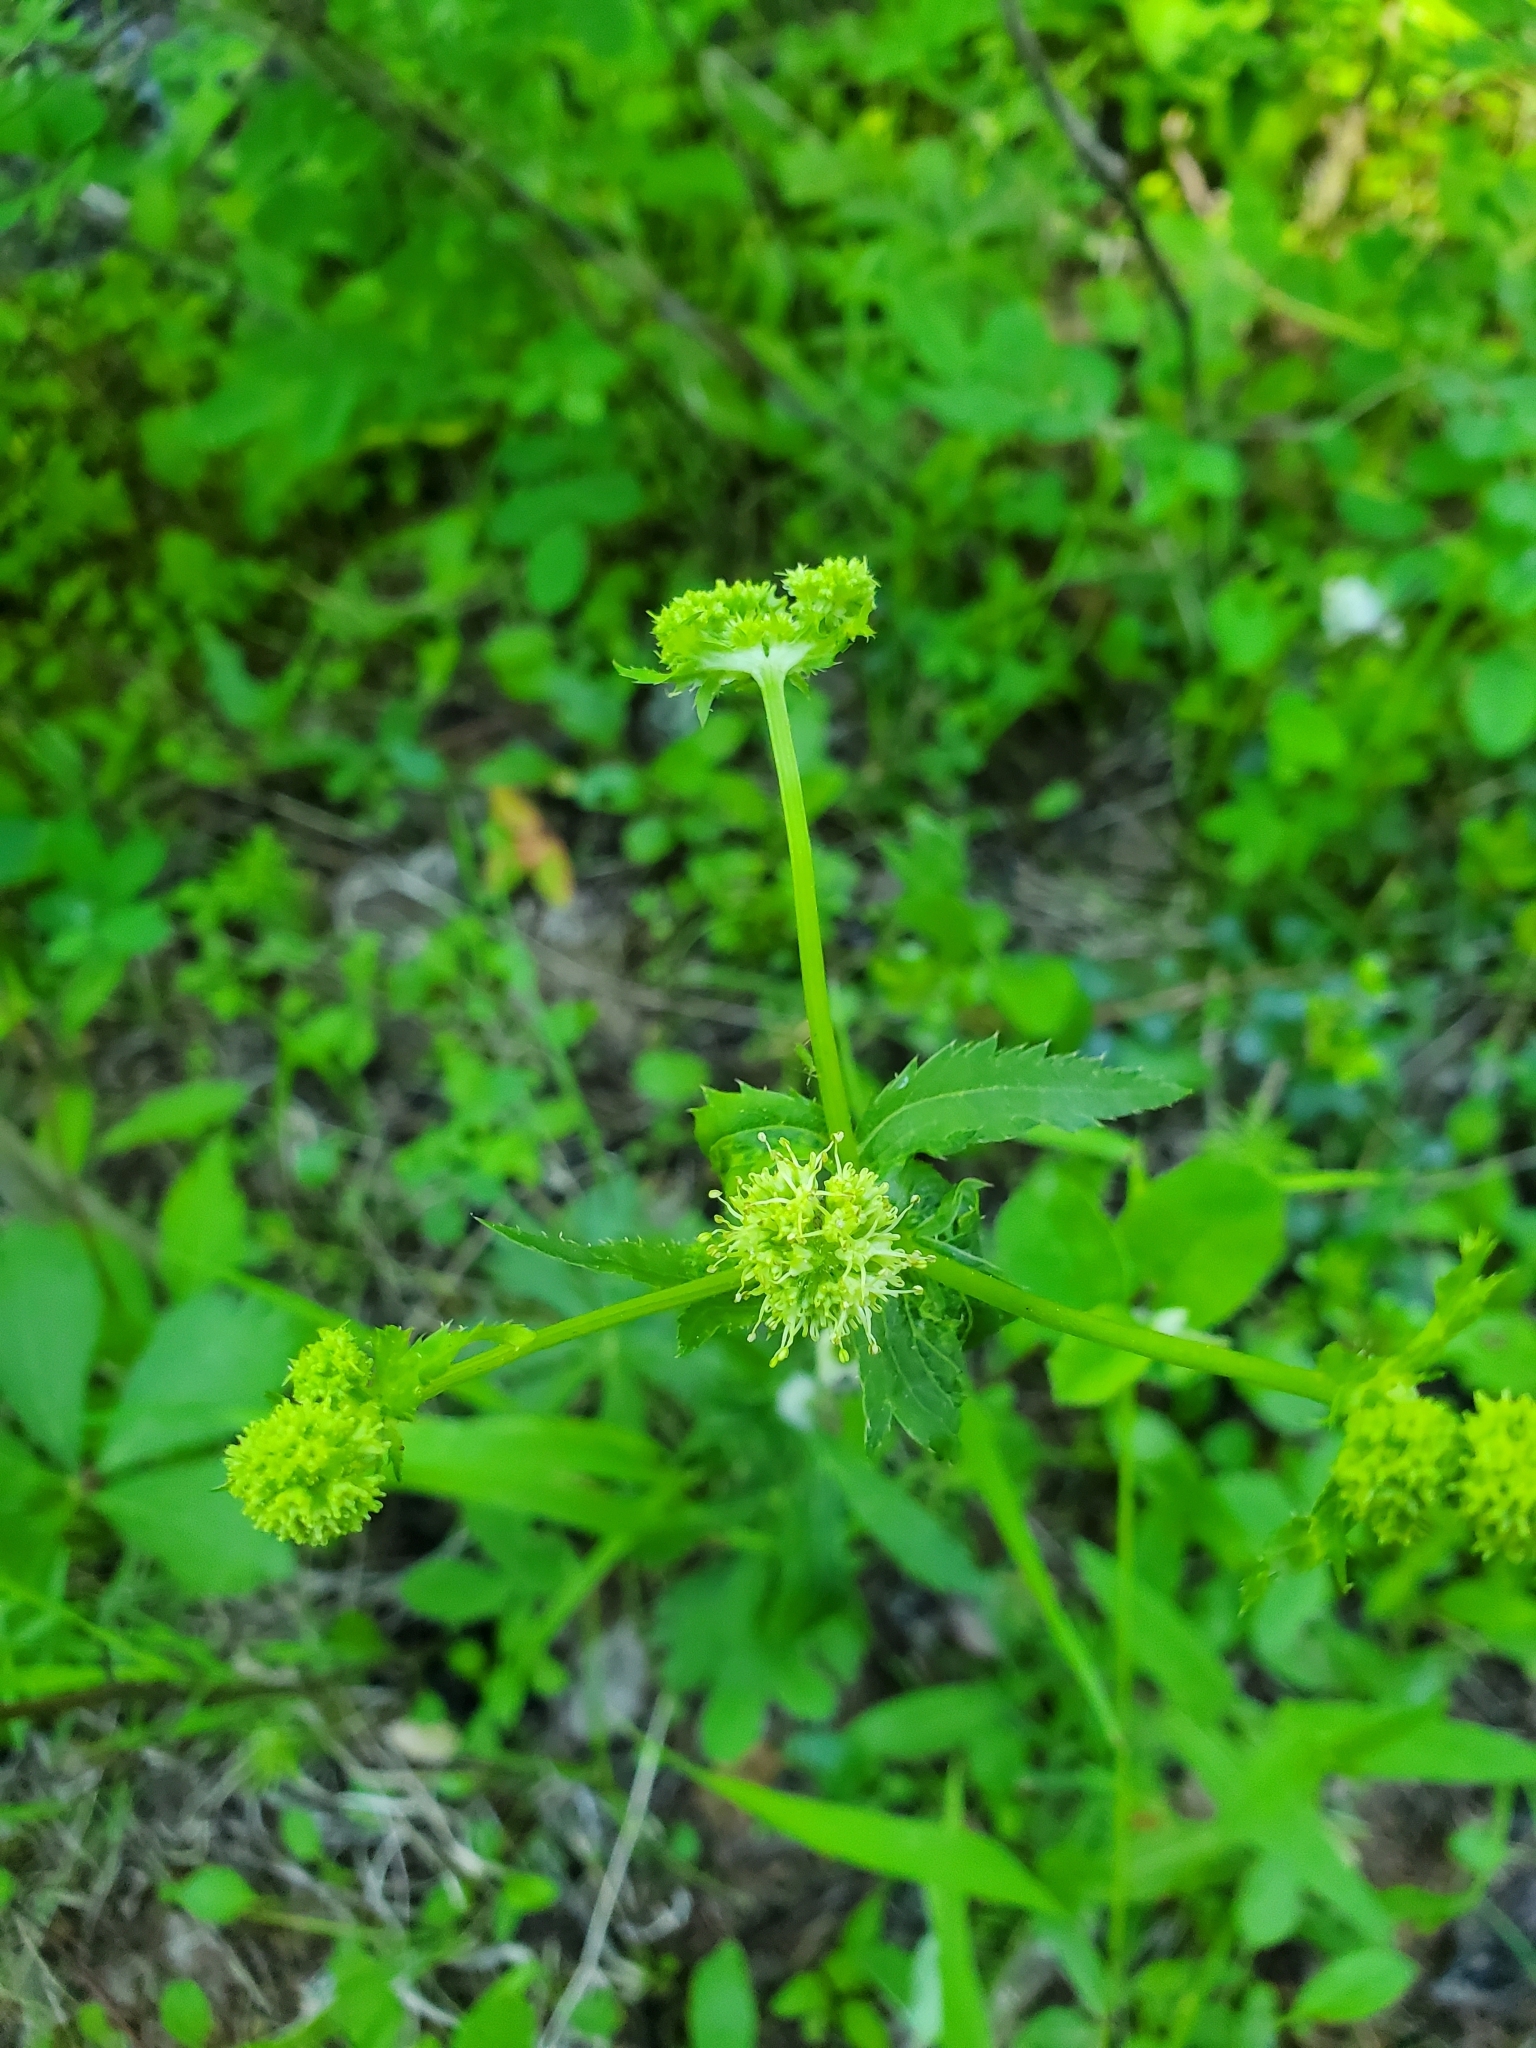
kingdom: Plantae
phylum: Tracheophyta
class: Magnoliopsida
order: Apiales
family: Apiaceae
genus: Sanicula
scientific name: Sanicula marilandica
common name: Black snakeroot
